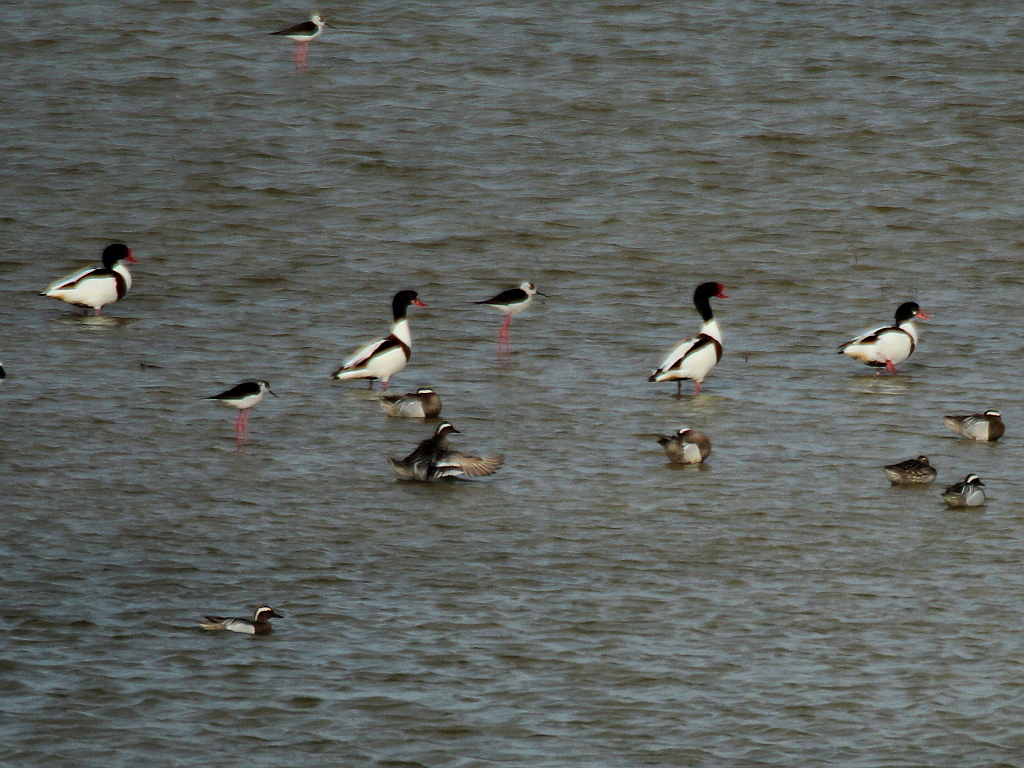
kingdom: Animalia
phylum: Chordata
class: Aves
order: Anseriformes
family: Anatidae
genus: Tadorna
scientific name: Tadorna tadorna
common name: Common shelduck
